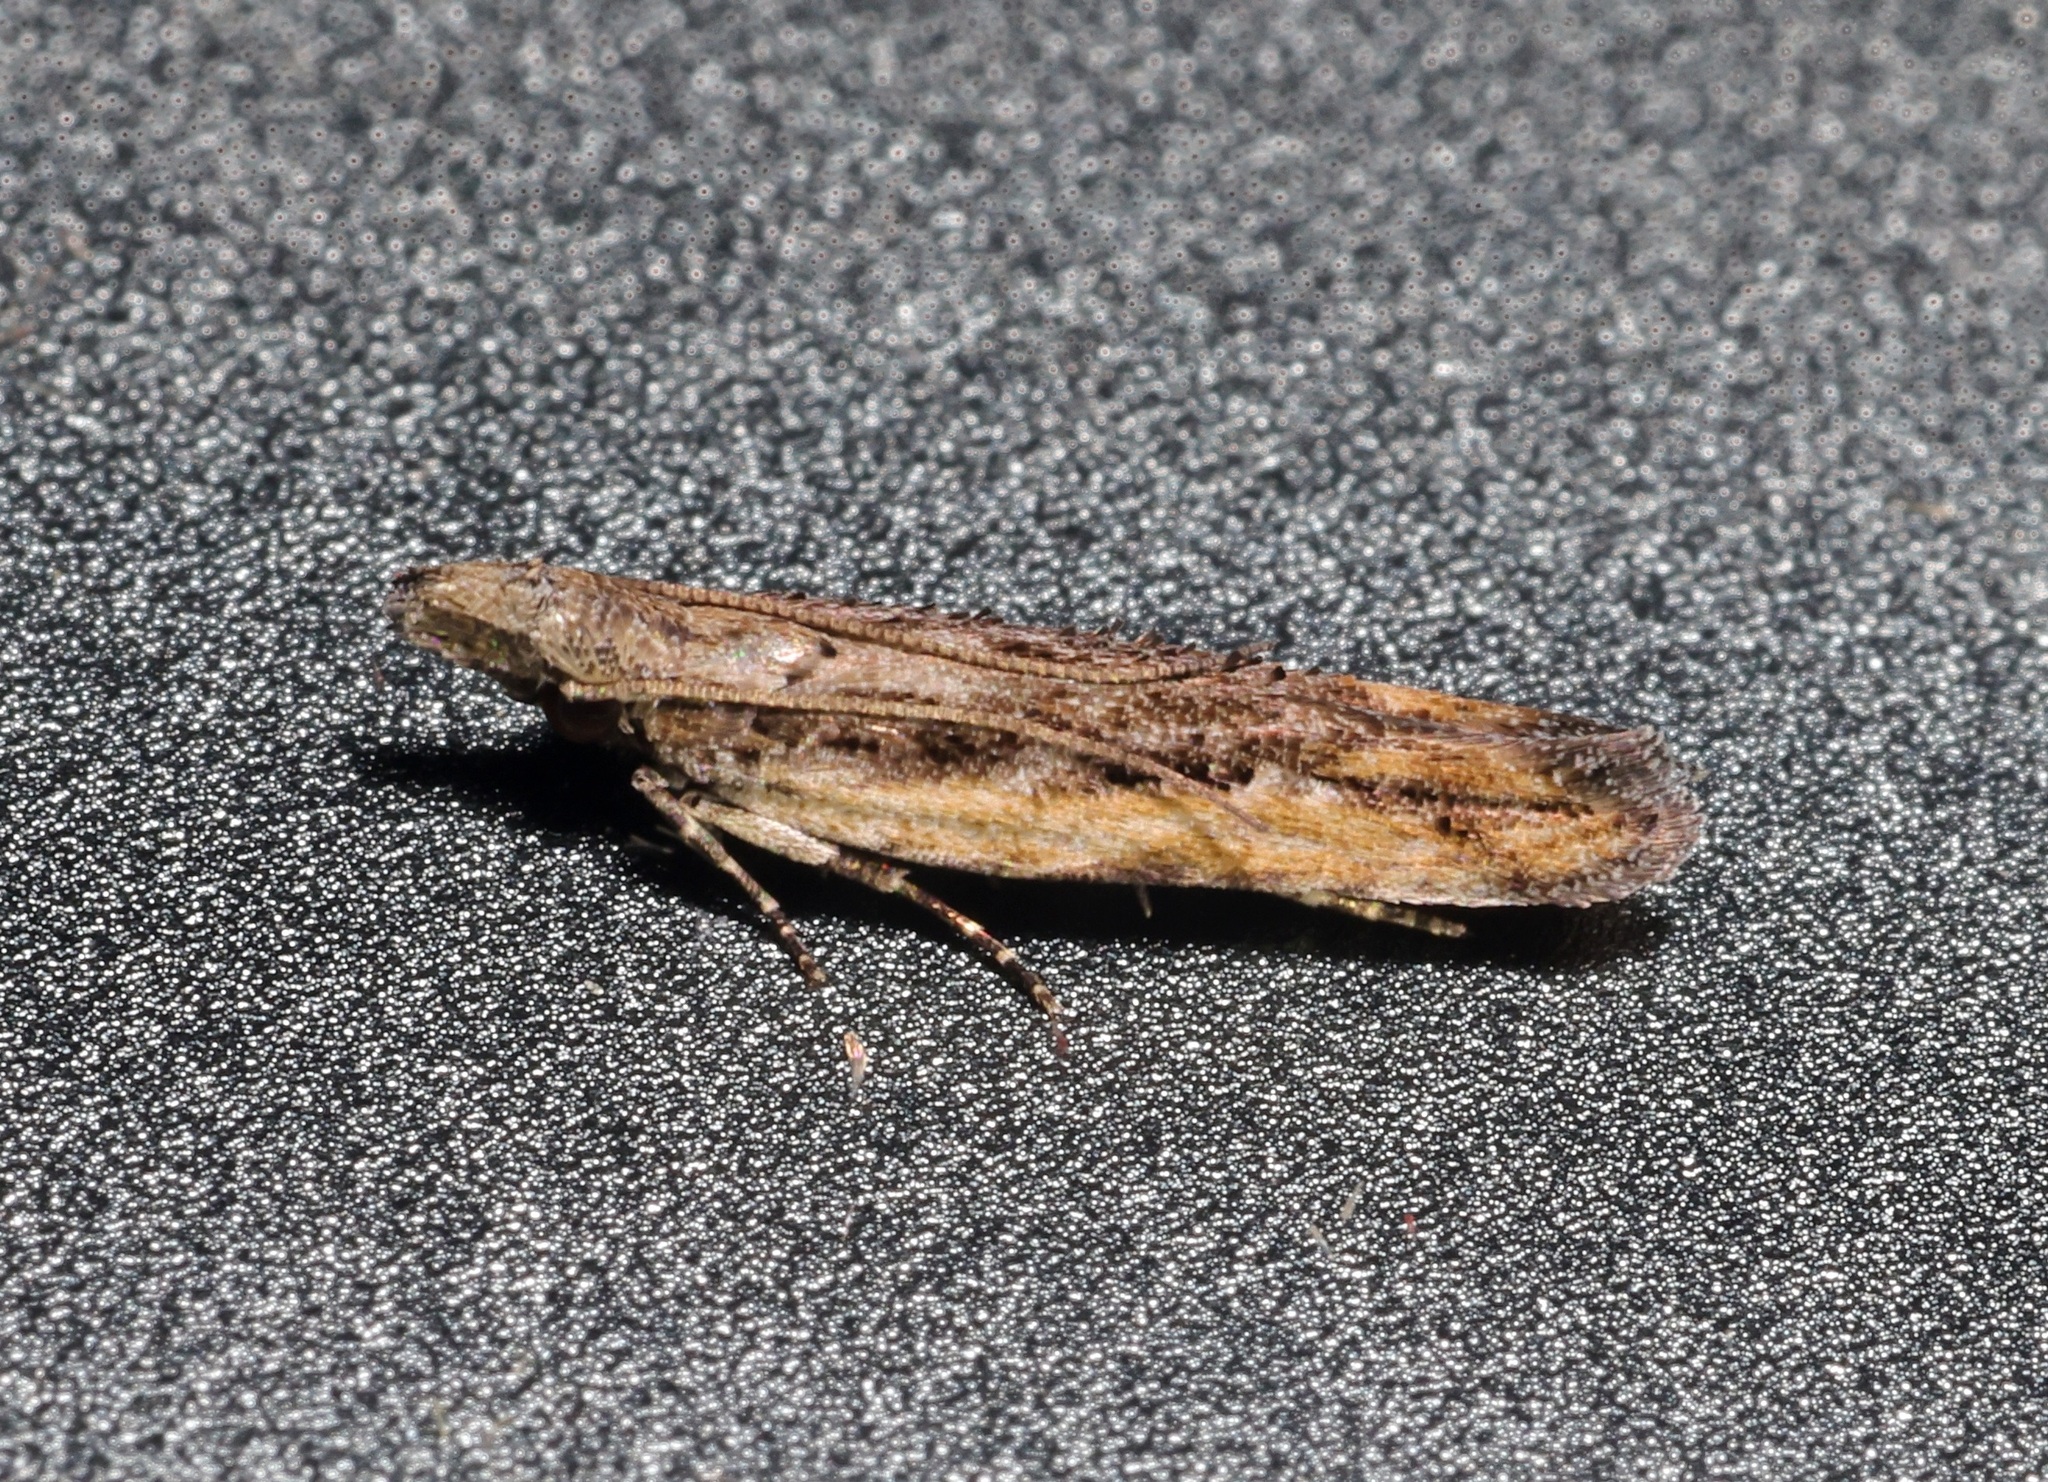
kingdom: Animalia
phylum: Arthropoda
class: Insecta
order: Lepidoptera
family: Gelechiidae
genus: Hypatima
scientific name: Hypatima venefica
